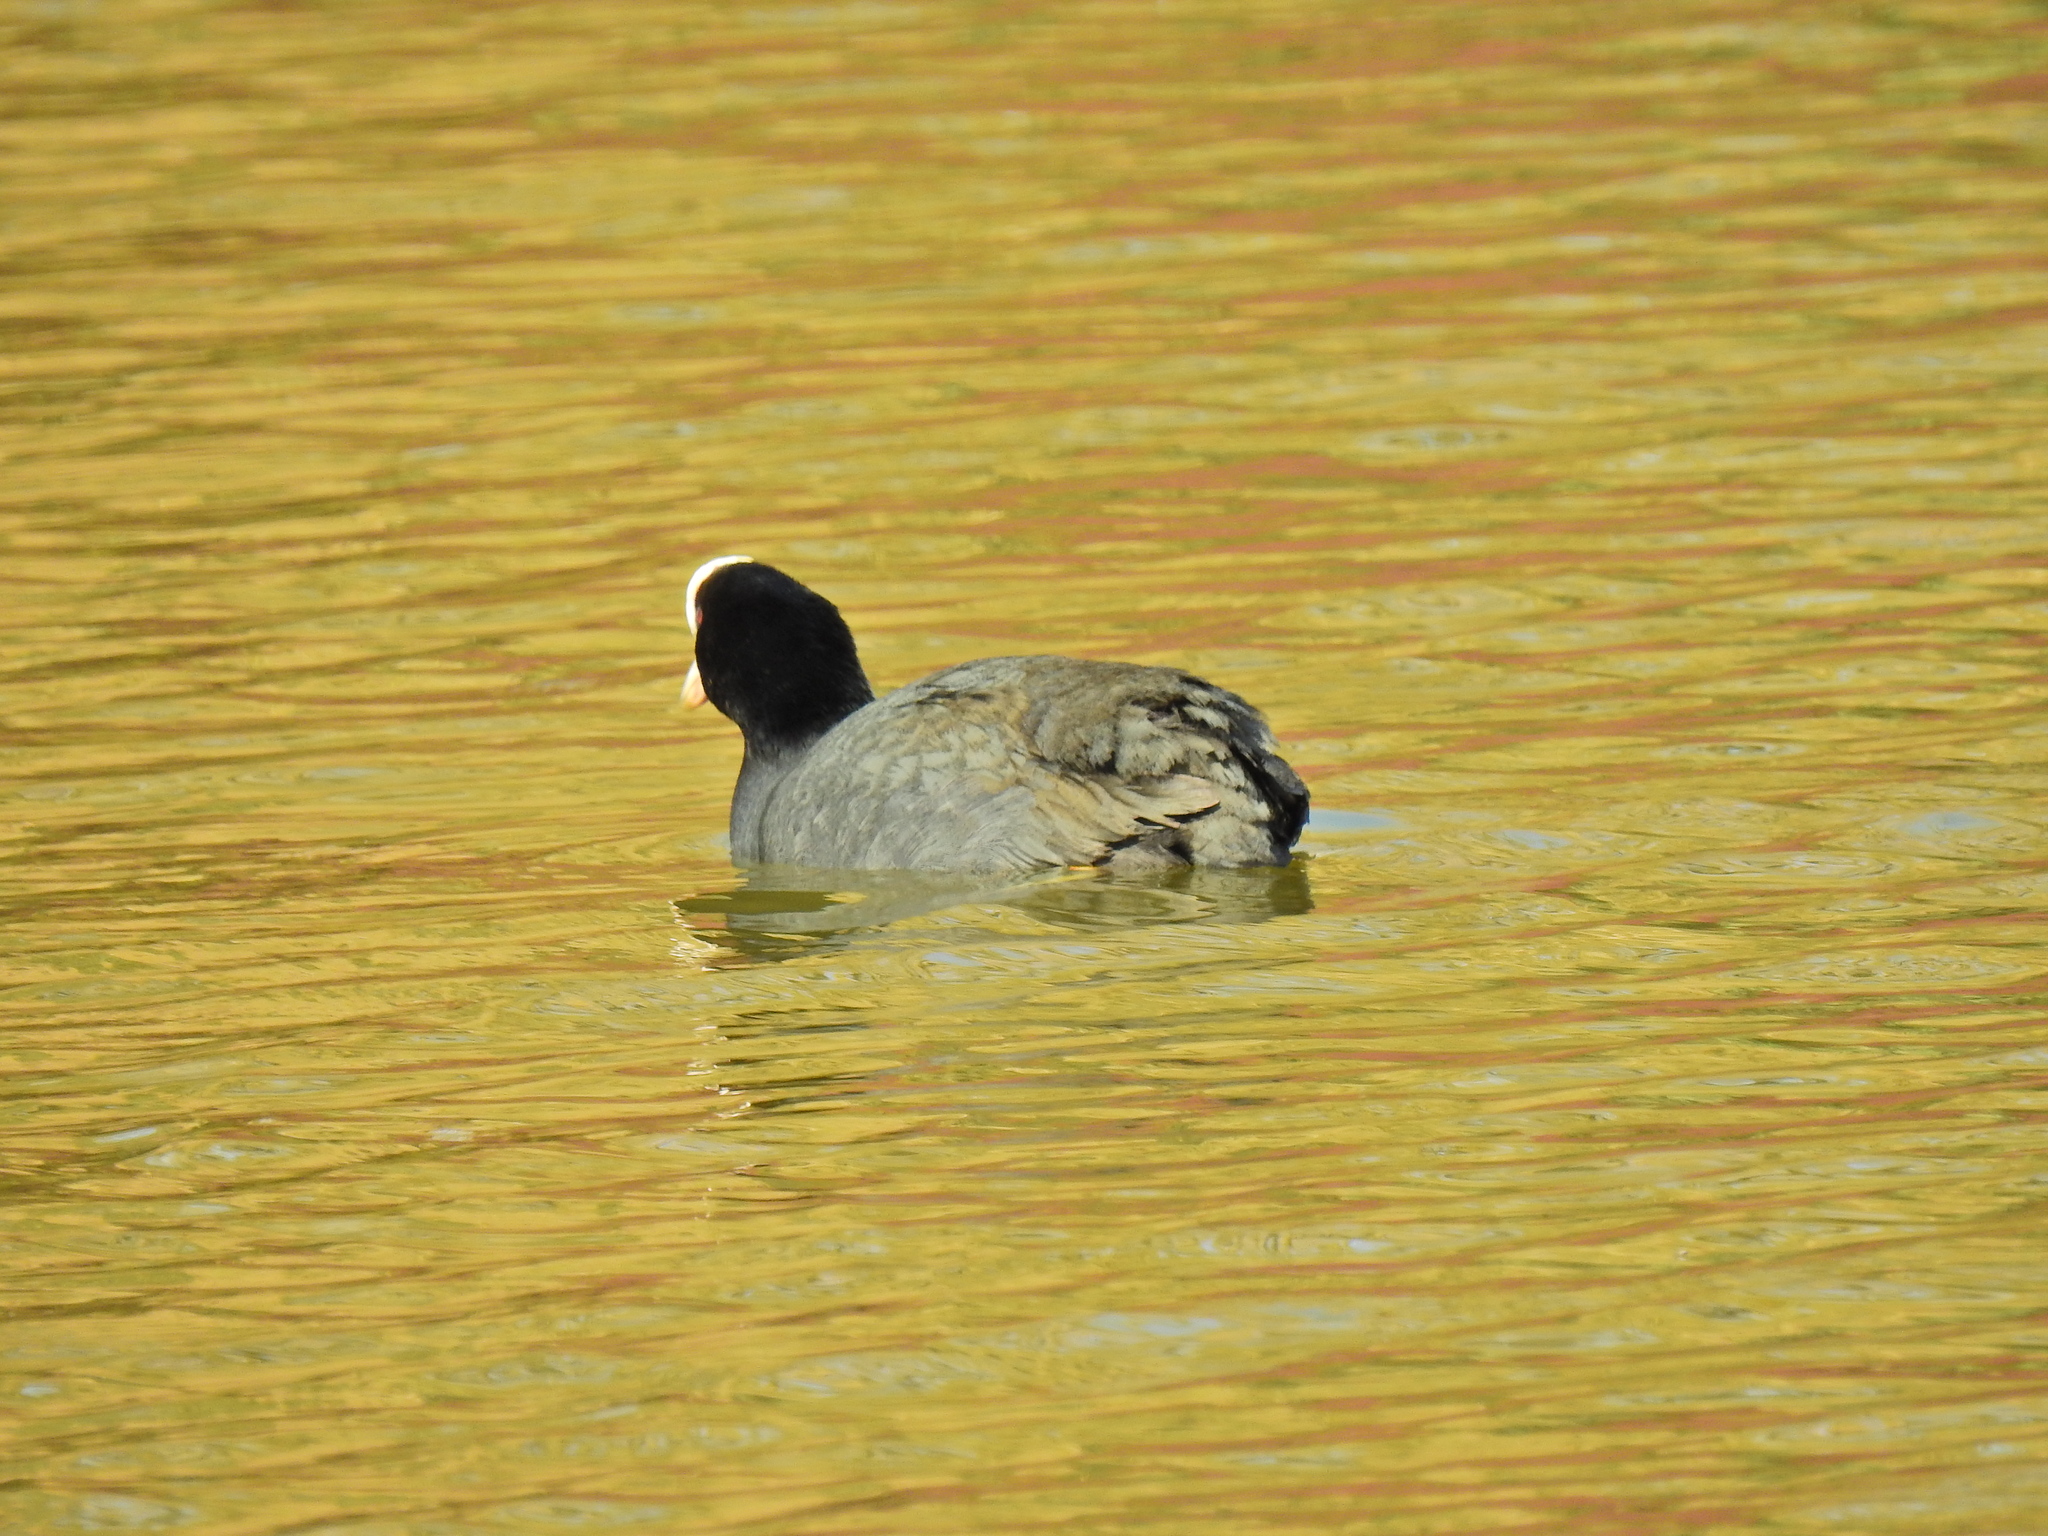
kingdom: Animalia
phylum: Chordata
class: Aves
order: Gruiformes
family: Rallidae
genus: Fulica
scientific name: Fulica atra
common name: Eurasian coot
